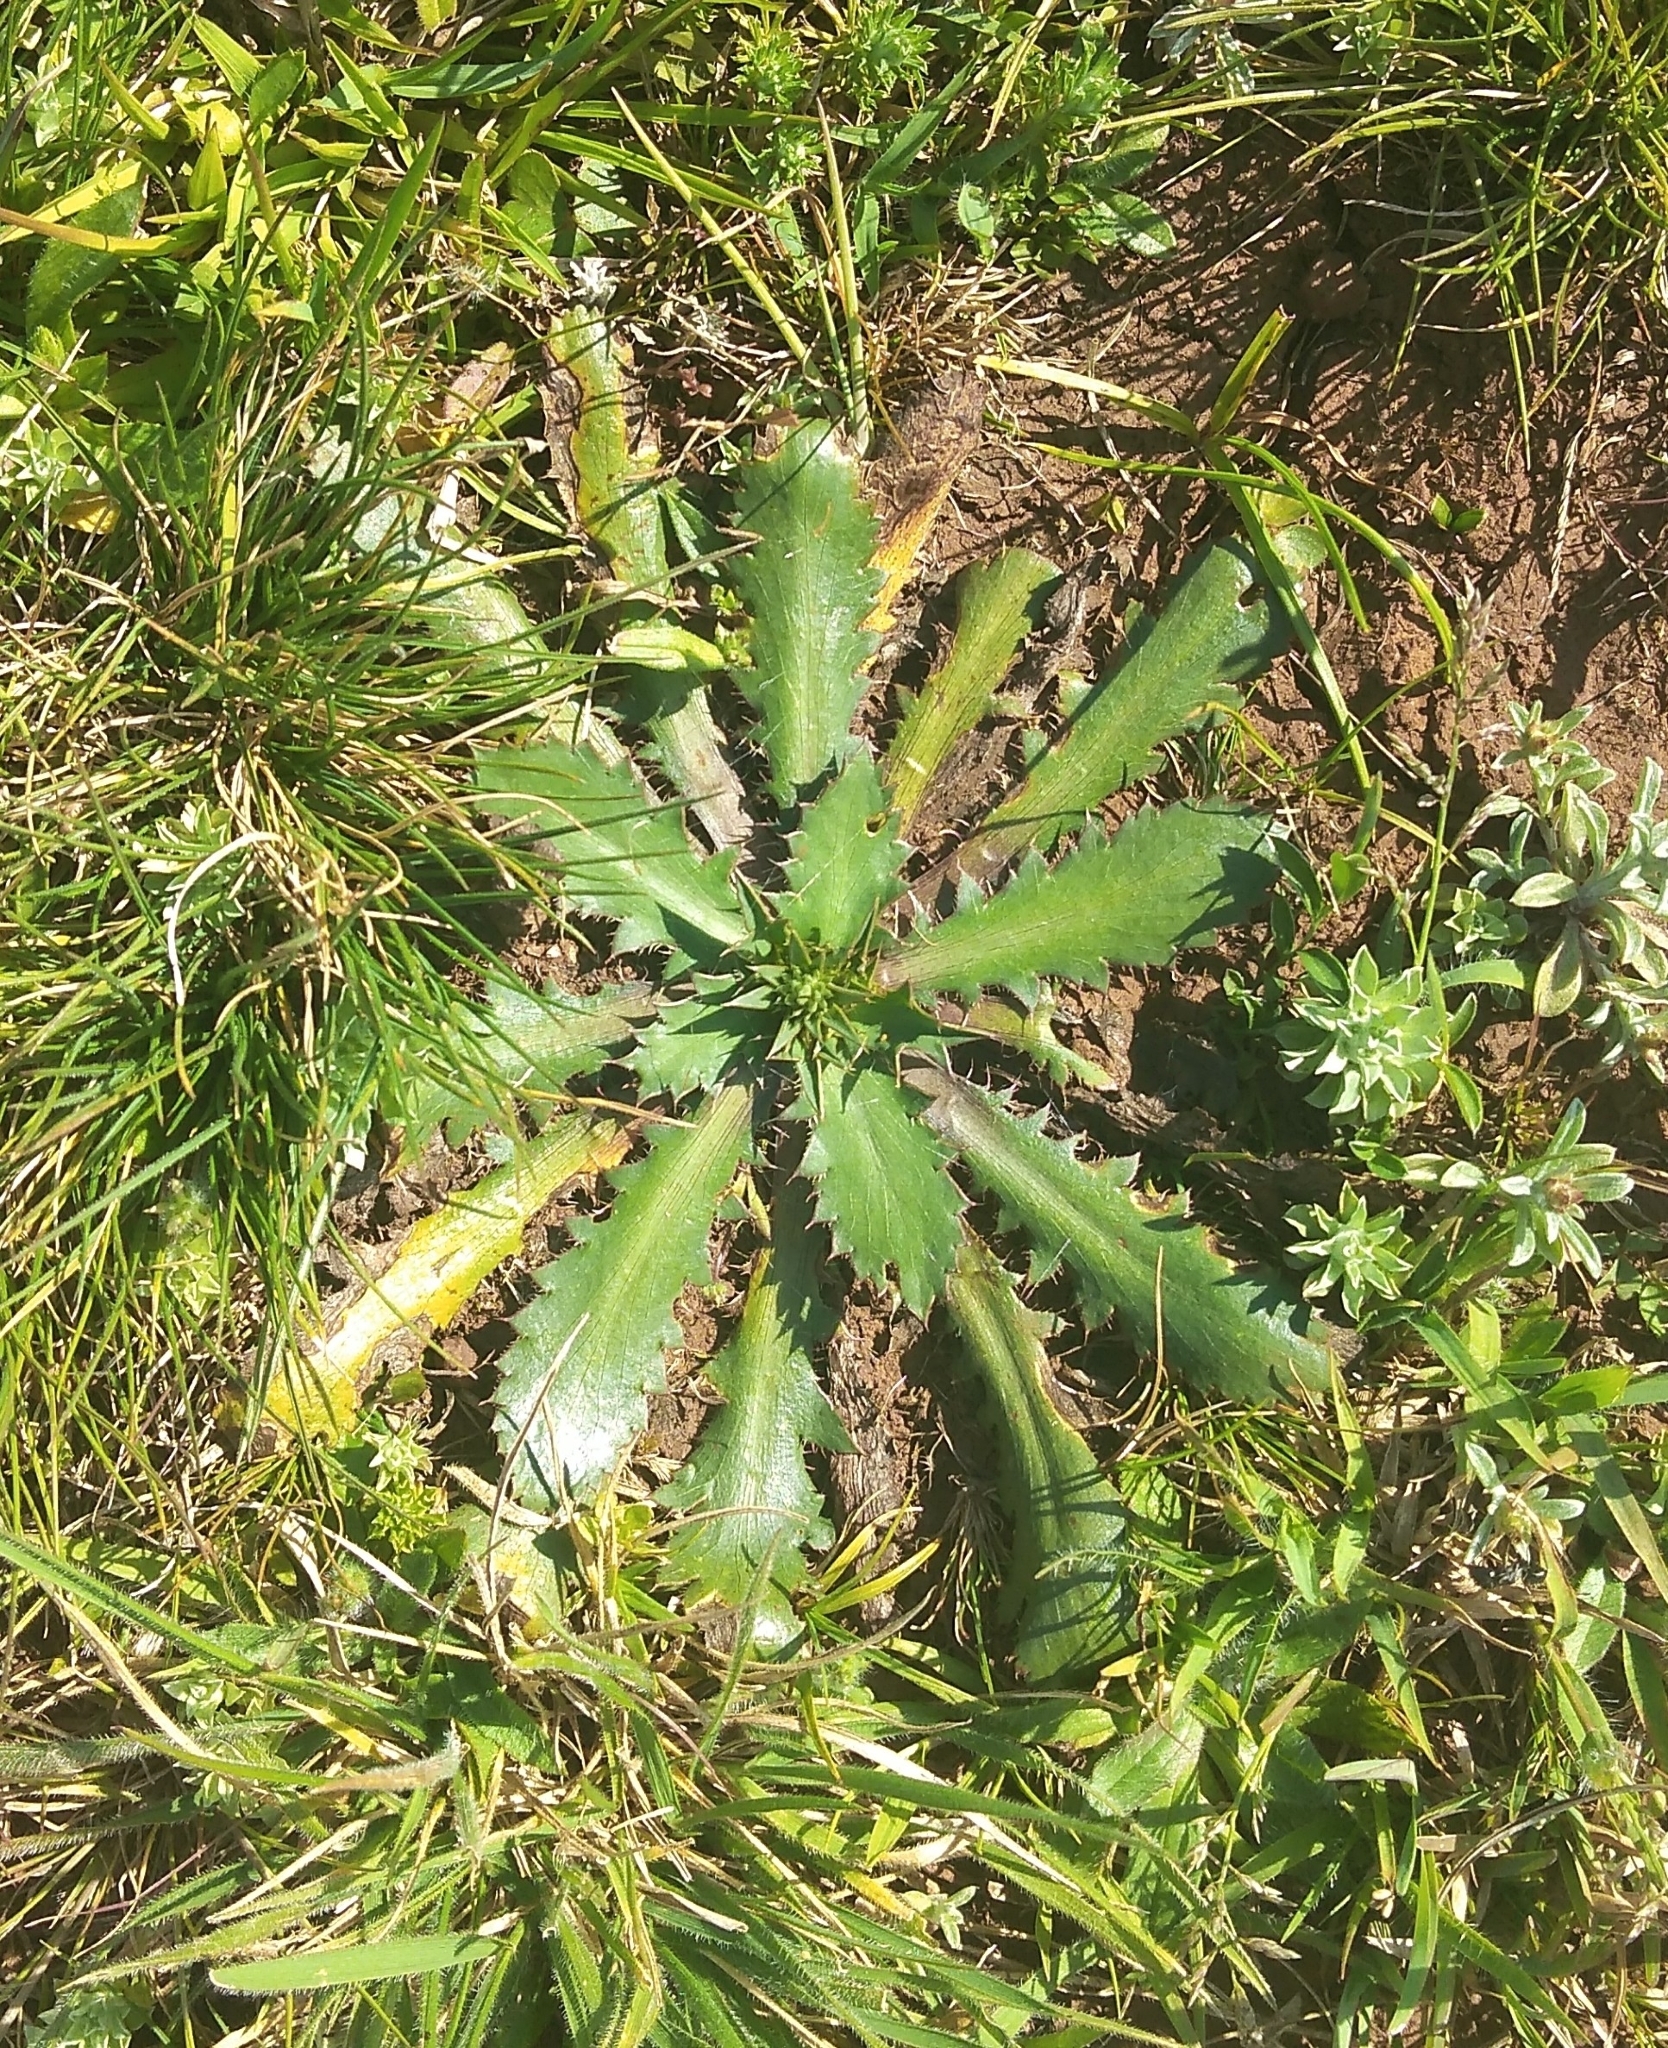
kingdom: Plantae
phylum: Tracheophyta
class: Magnoliopsida
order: Apiales
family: Apiaceae
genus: Eryngium
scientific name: Eryngium nudicaule
